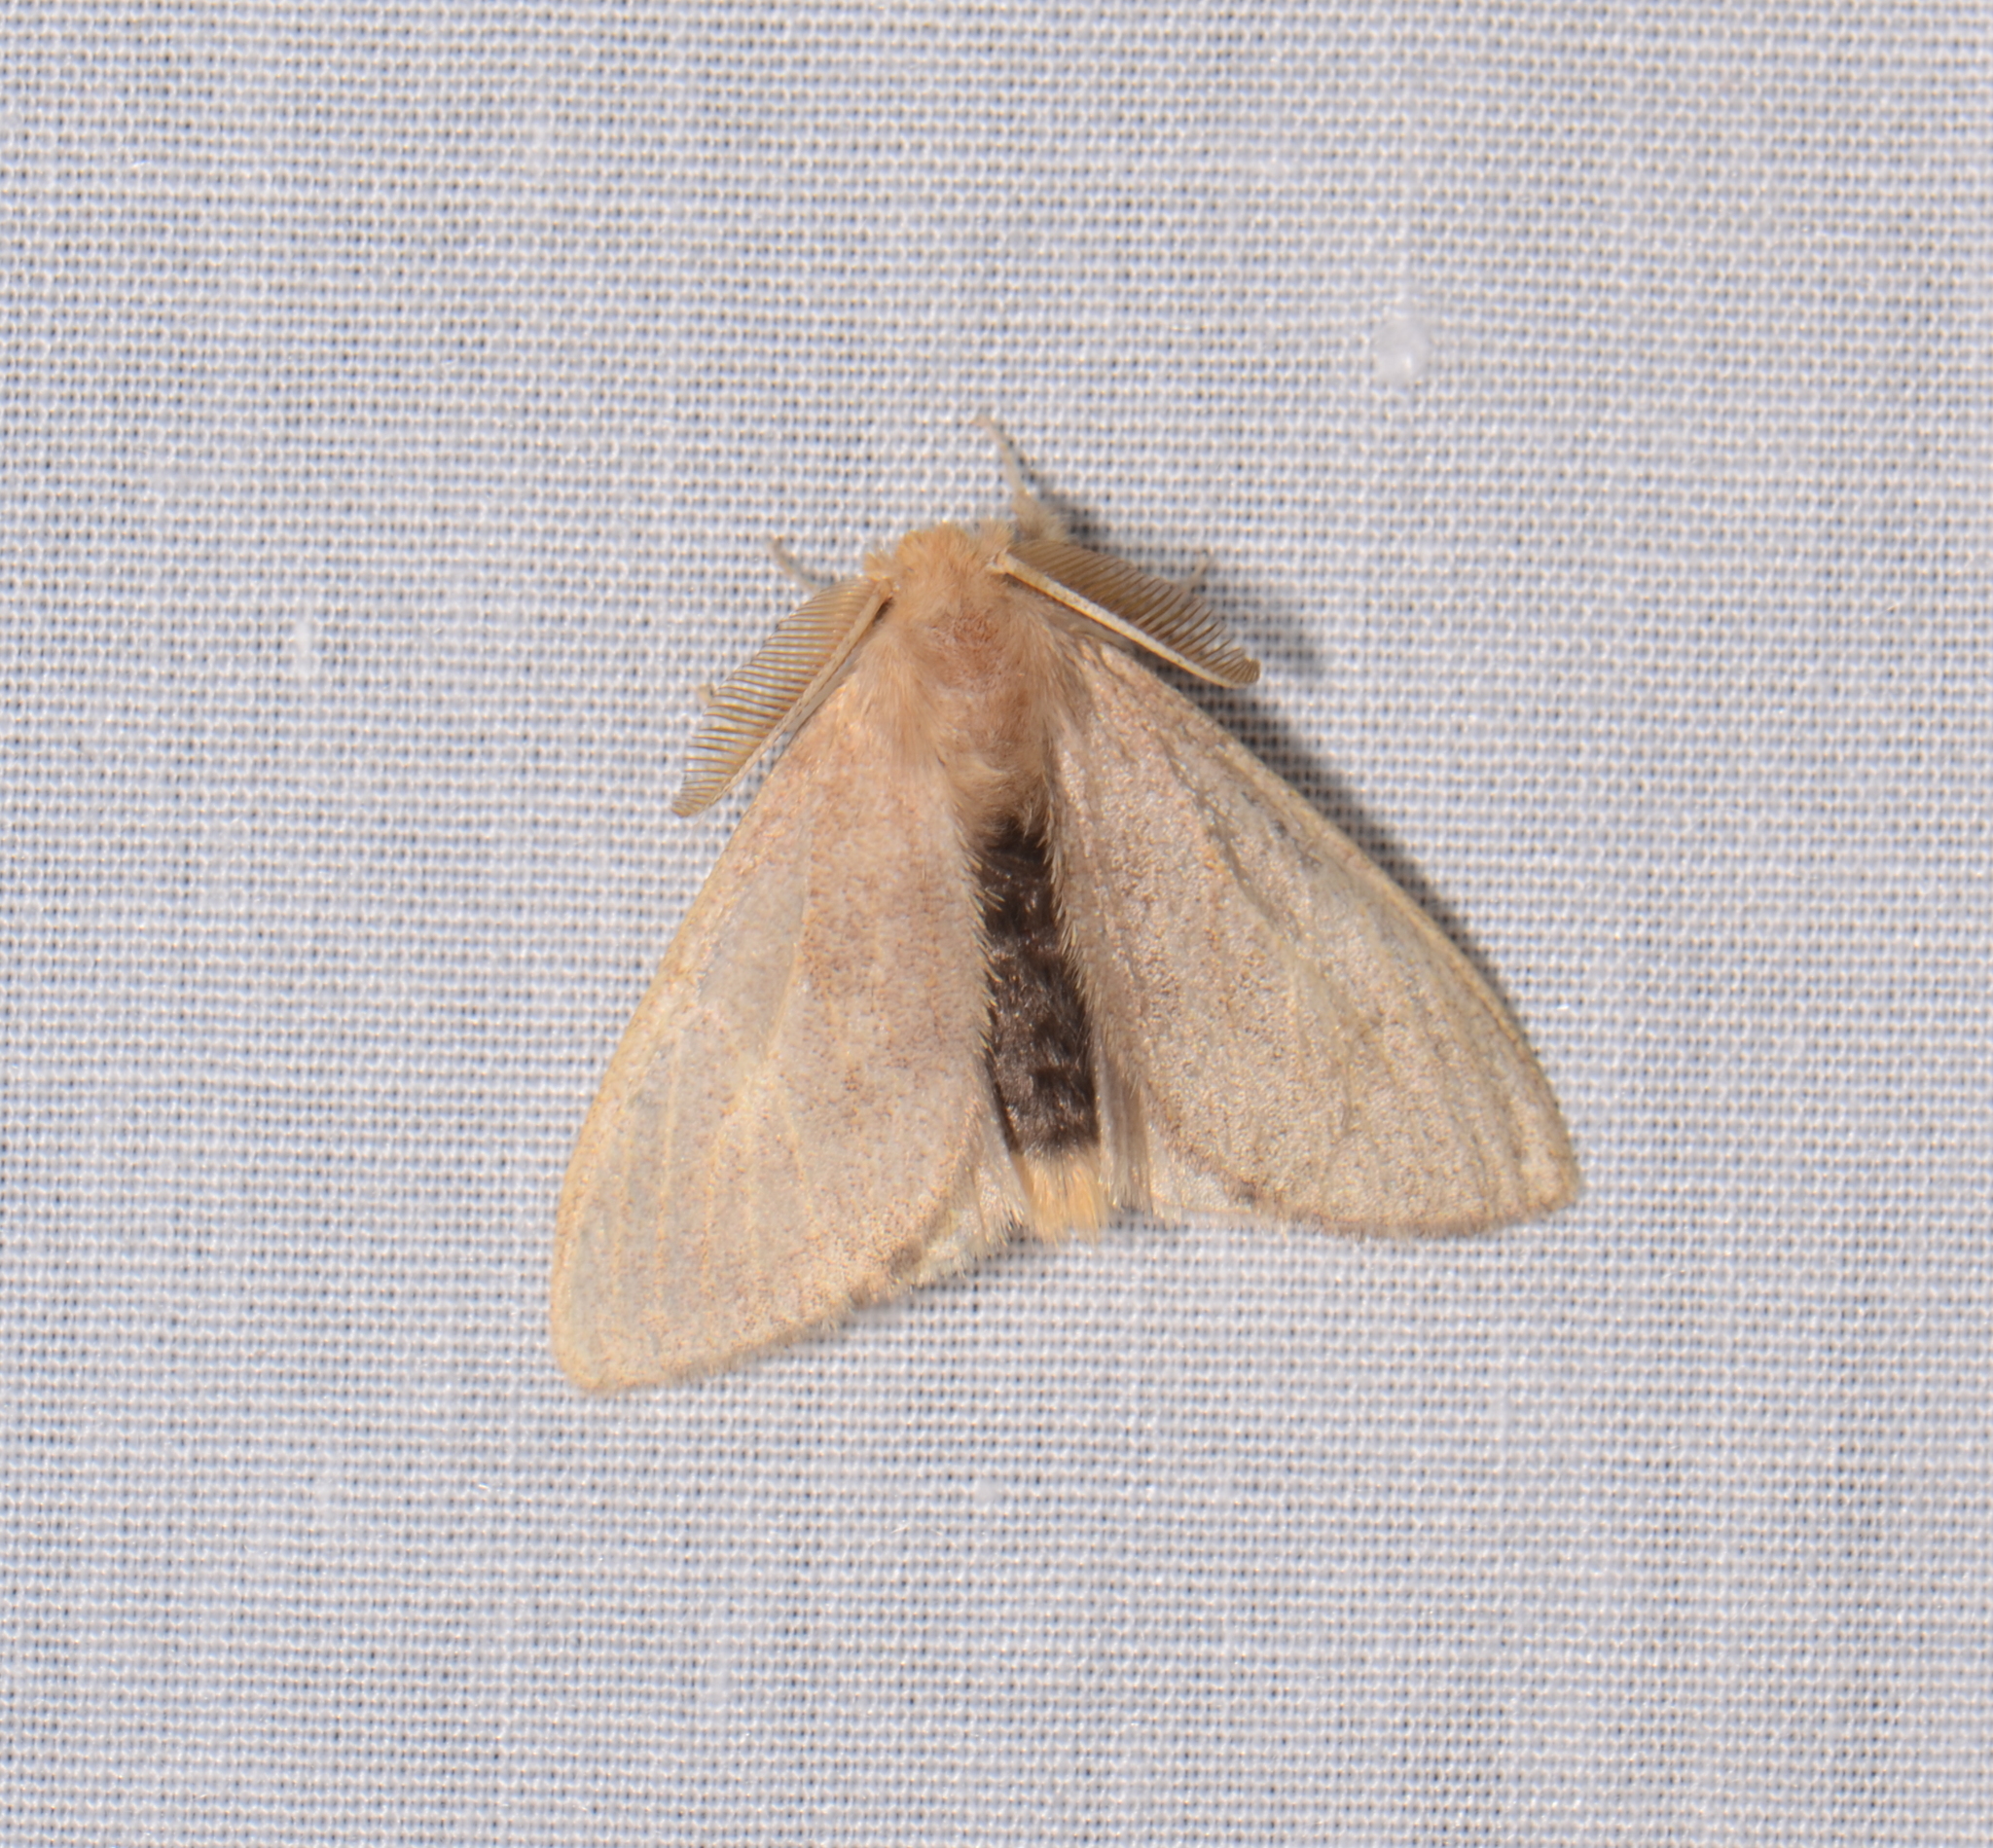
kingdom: Animalia
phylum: Arthropoda
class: Insecta
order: Lepidoptera
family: Erebidae
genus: Toxoproctis
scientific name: Toxoproctis adrian
